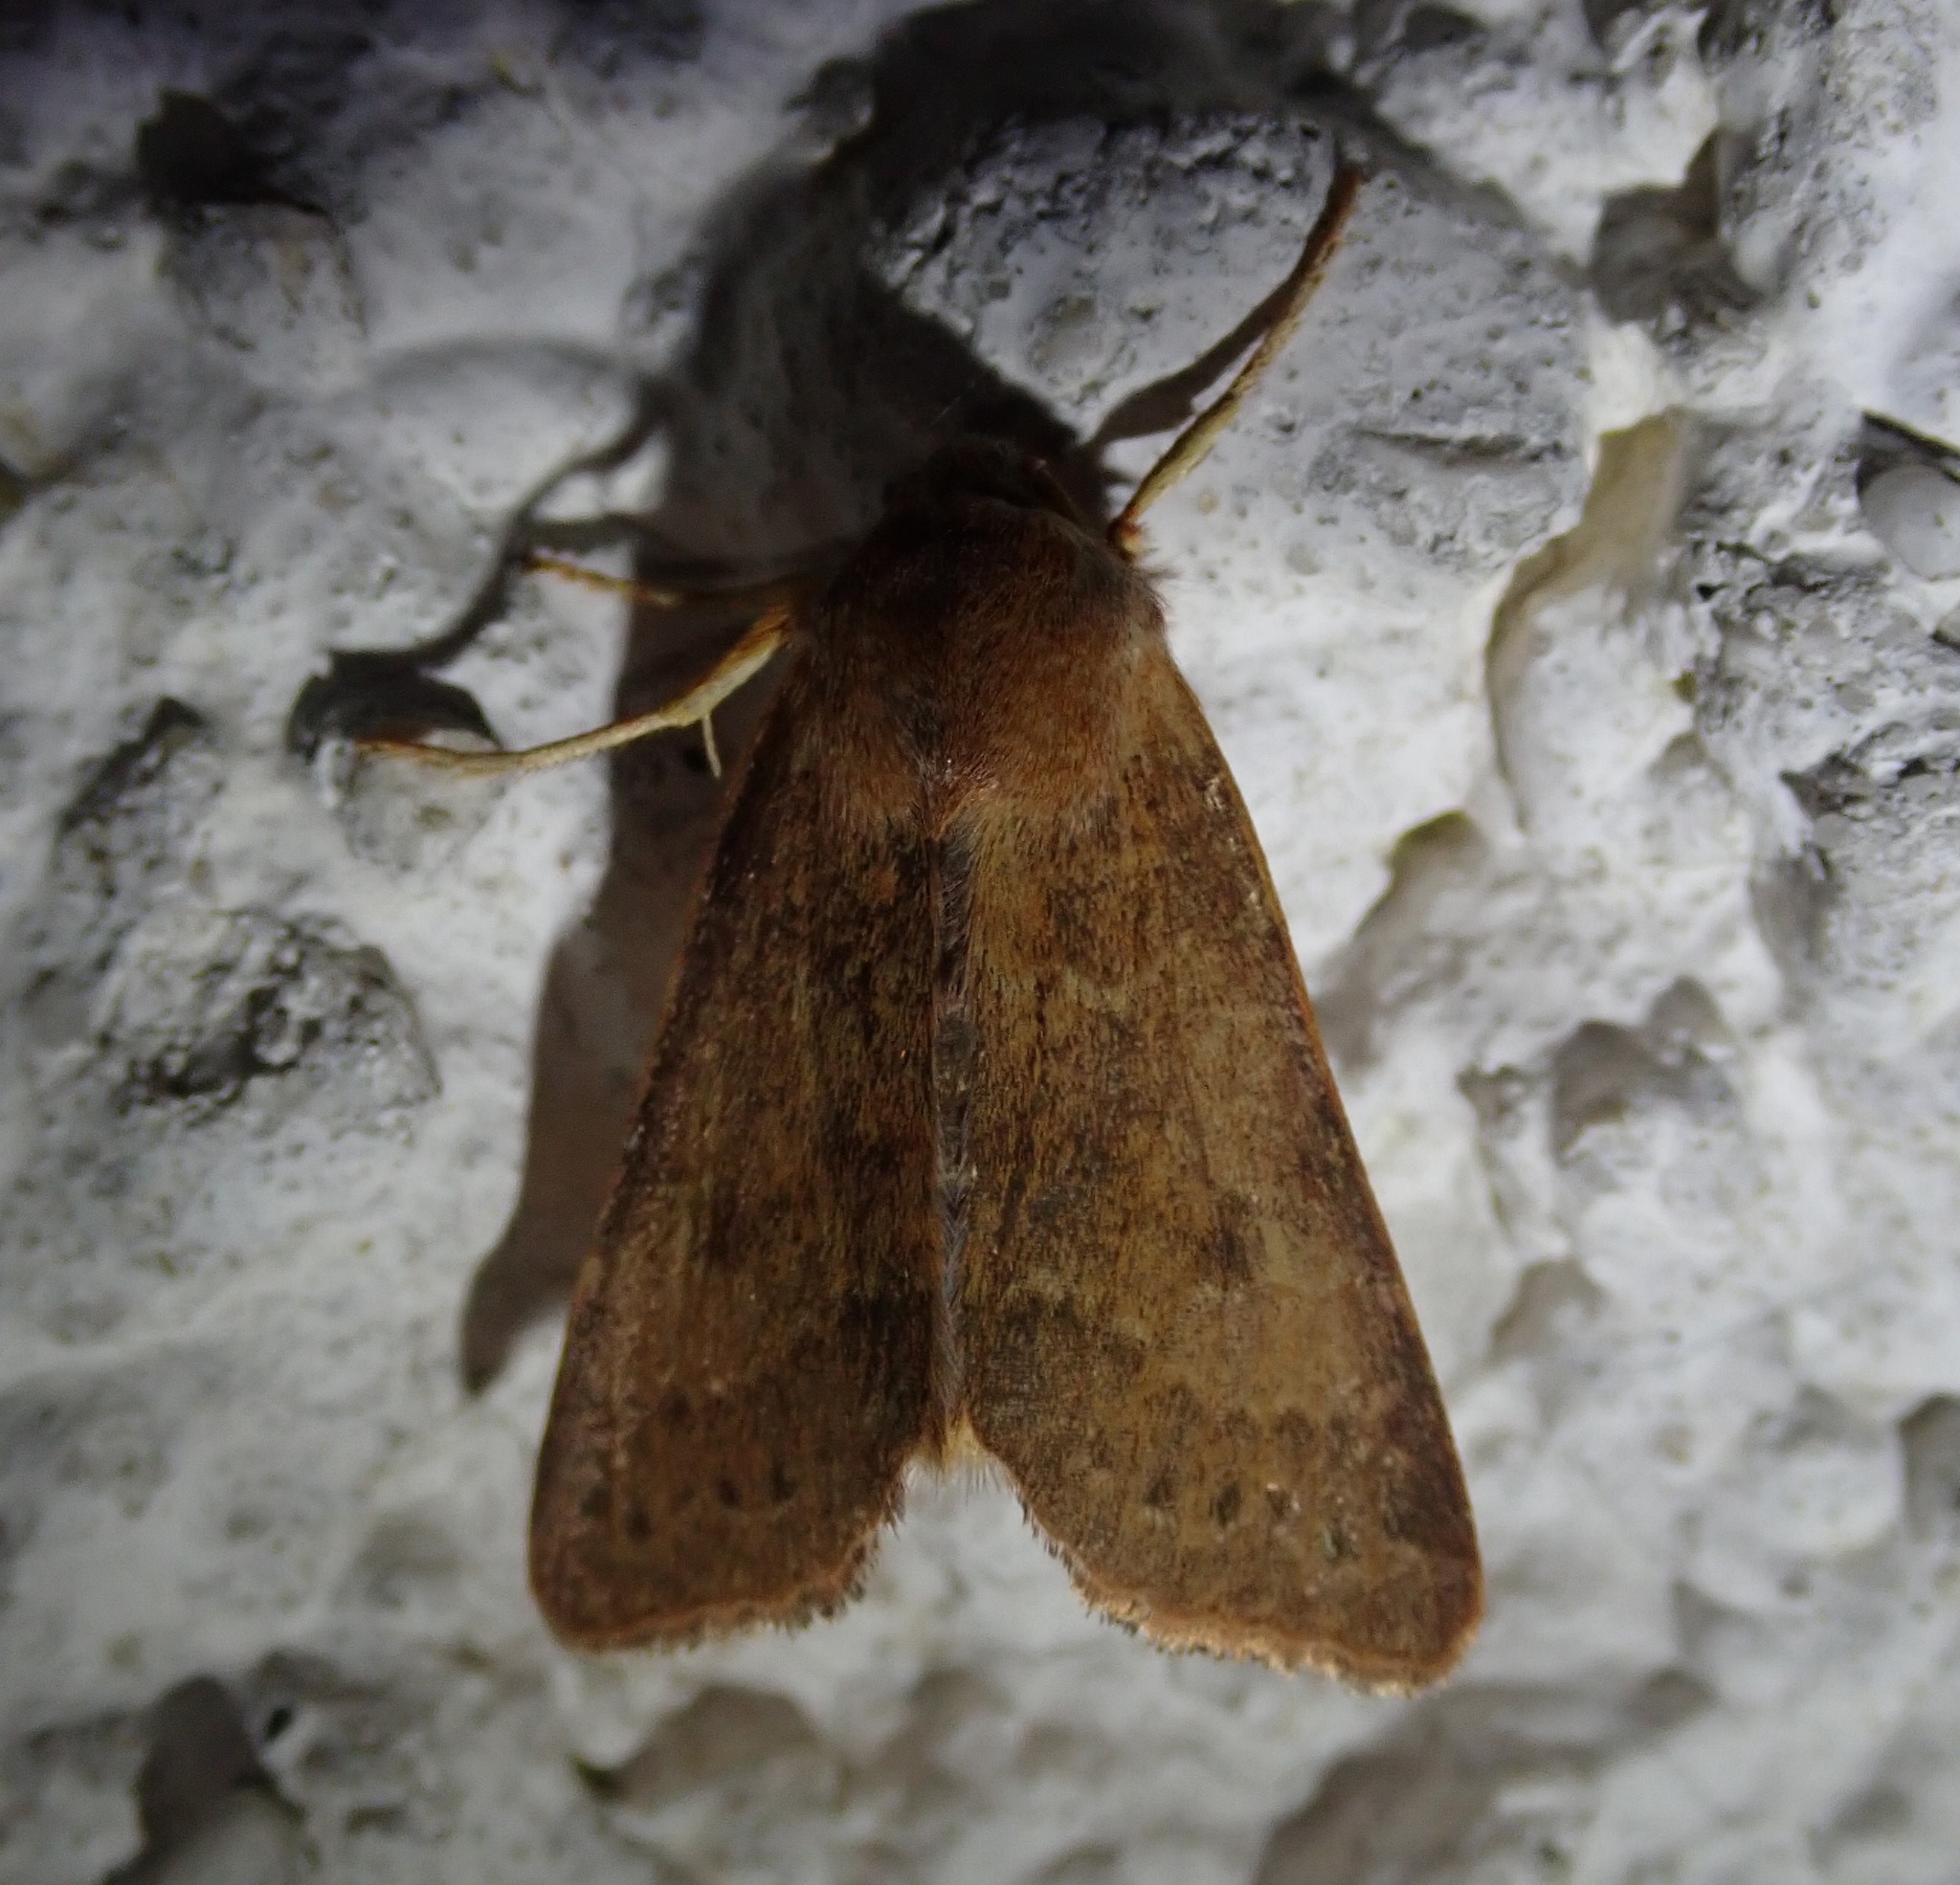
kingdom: Animalia
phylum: Arthropoda
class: Insecta
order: Lepidoptera
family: Noctuidae
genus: Agrochola
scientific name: Agrochola helvola
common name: Flounced chestnut
